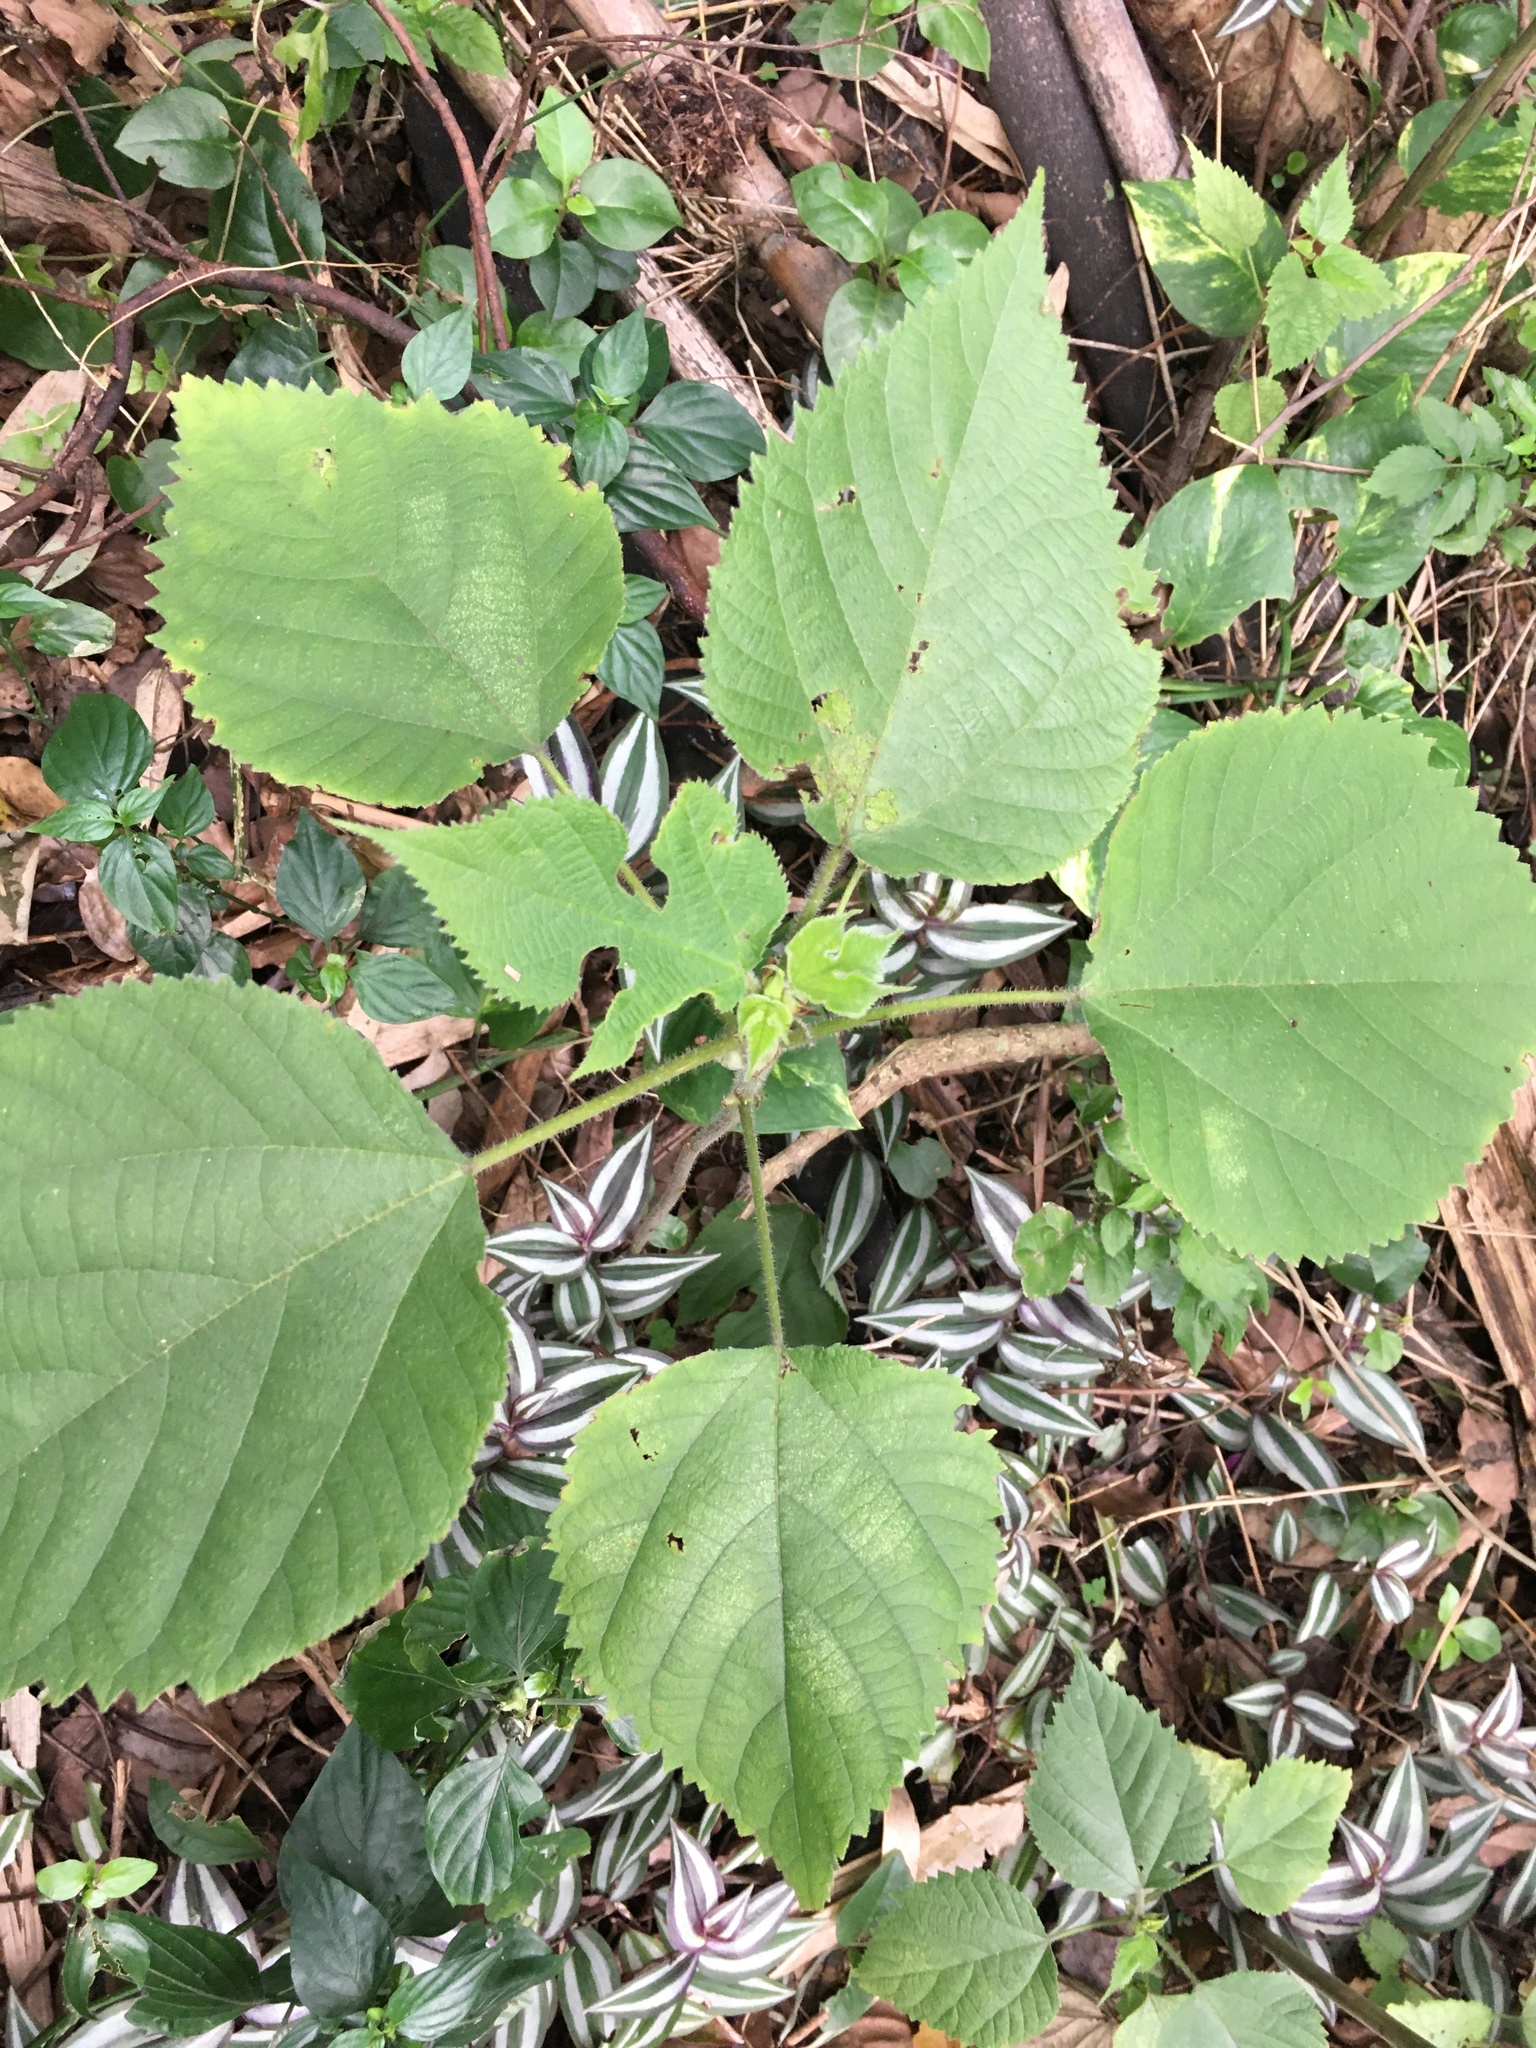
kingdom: Plantae
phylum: Tracheophyta
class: Magnoliopsida
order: Rosales
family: Moraceae
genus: Broussonetia
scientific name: Broussonetia papyrifera
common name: Paper mulberry
